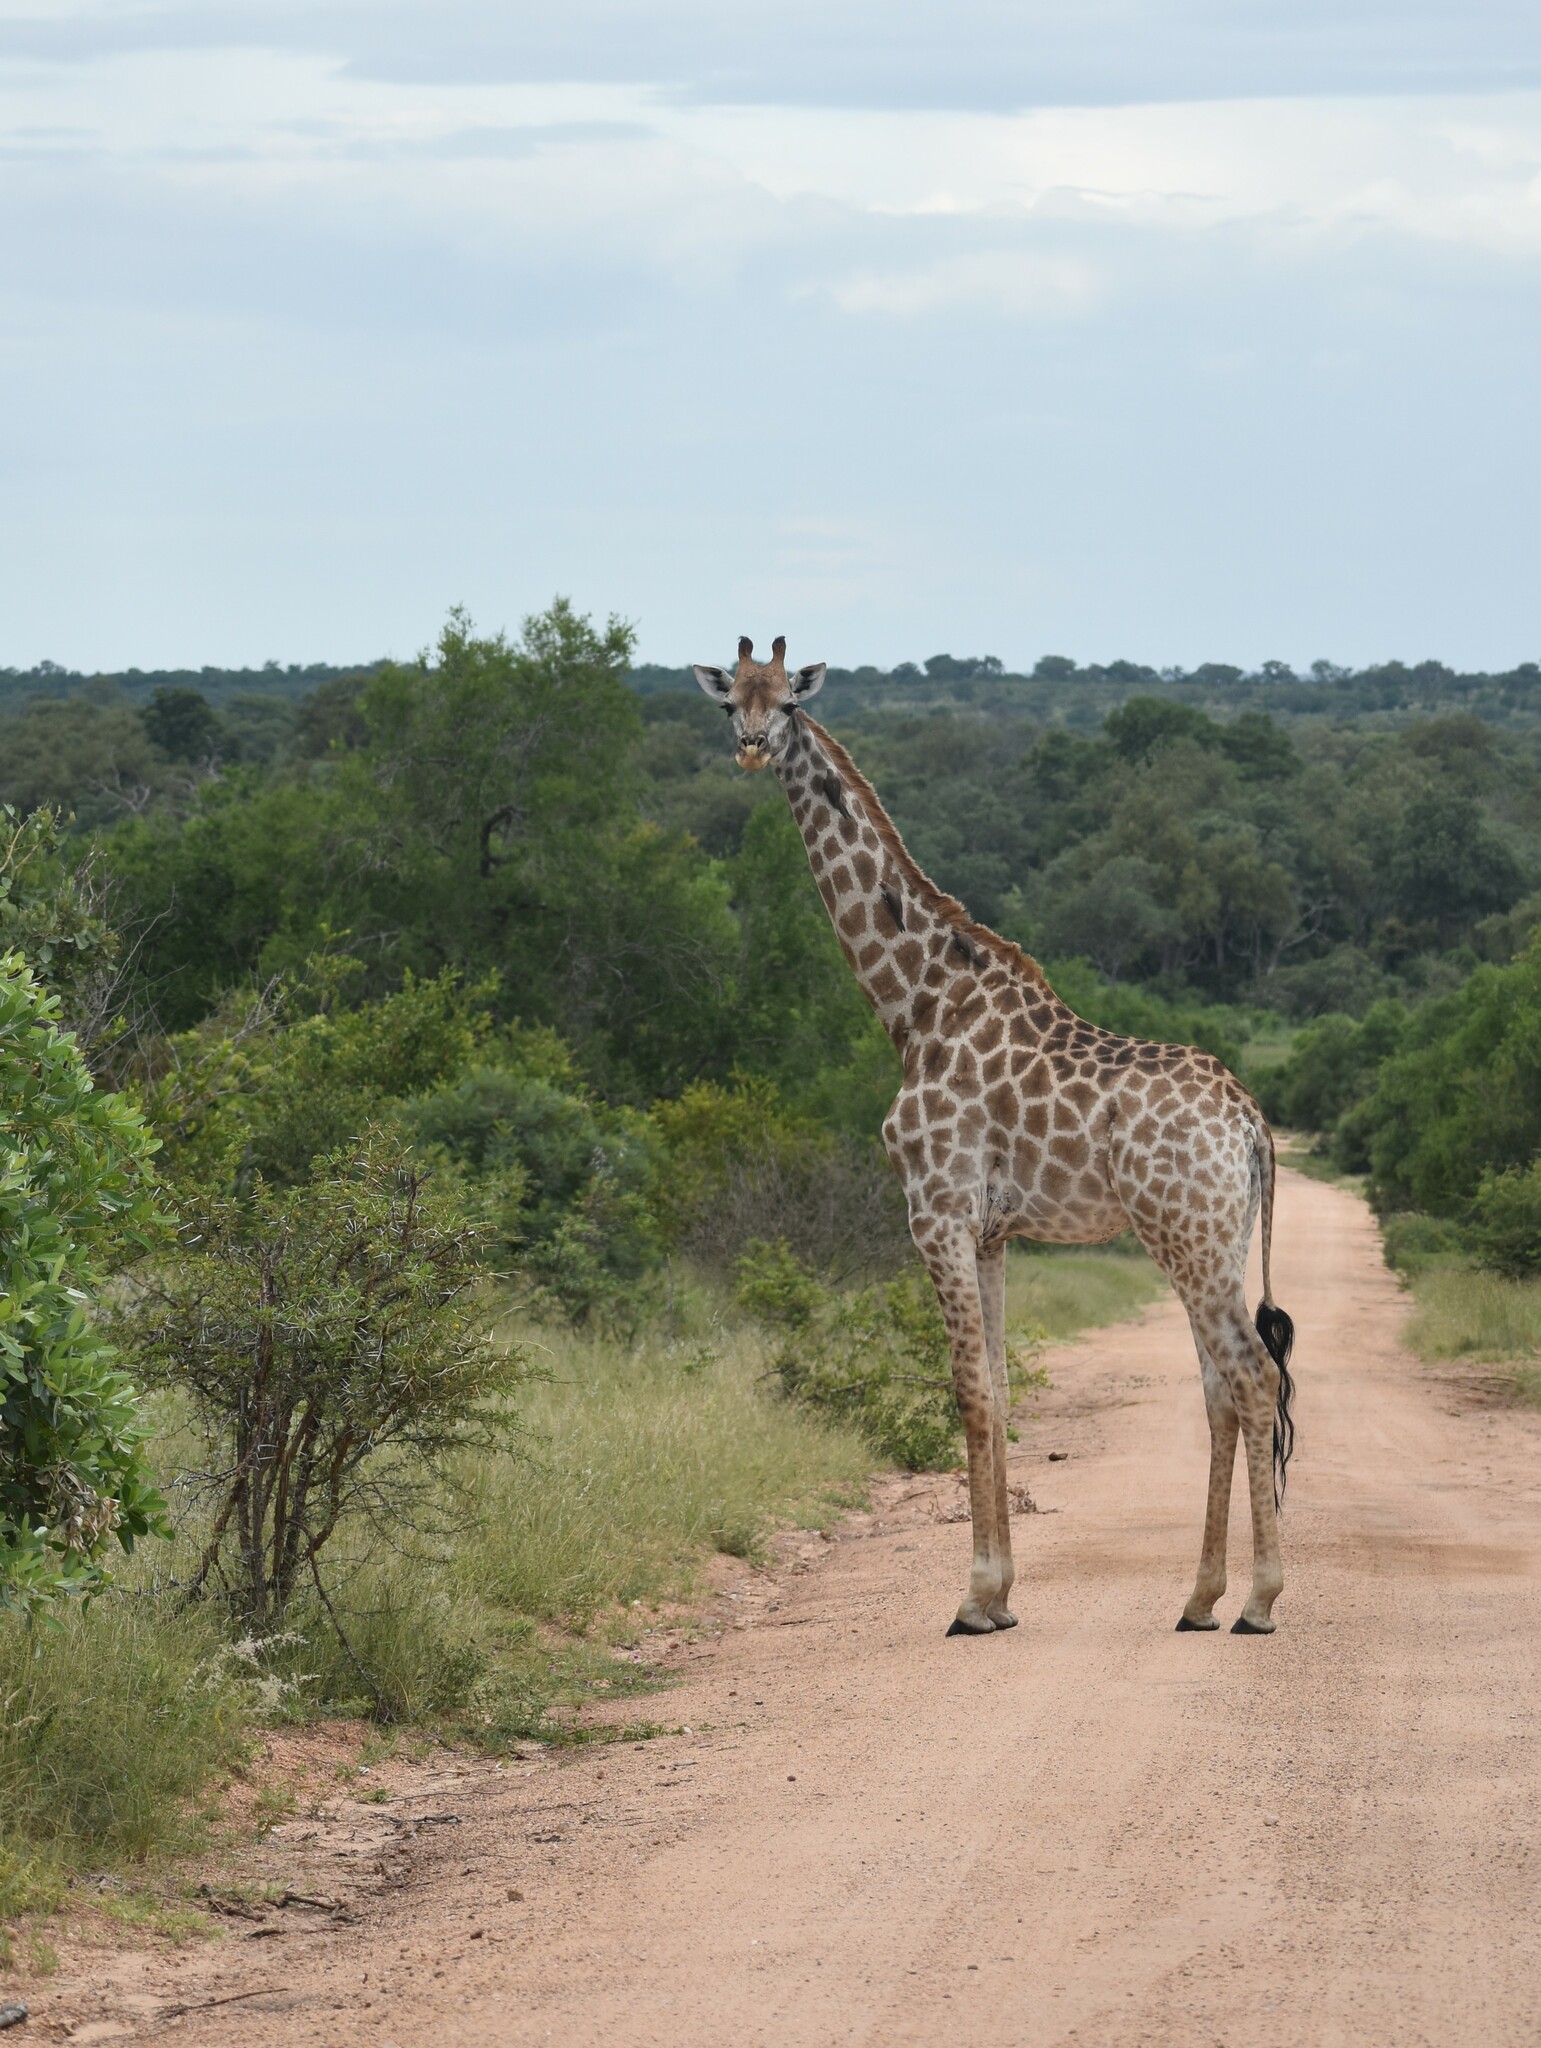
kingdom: Animalia
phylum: Chordata
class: Mammalia
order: Artiodactyla
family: Giraffidae
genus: Giraffa
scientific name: Giraffa giraffa
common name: Southern giraffe
